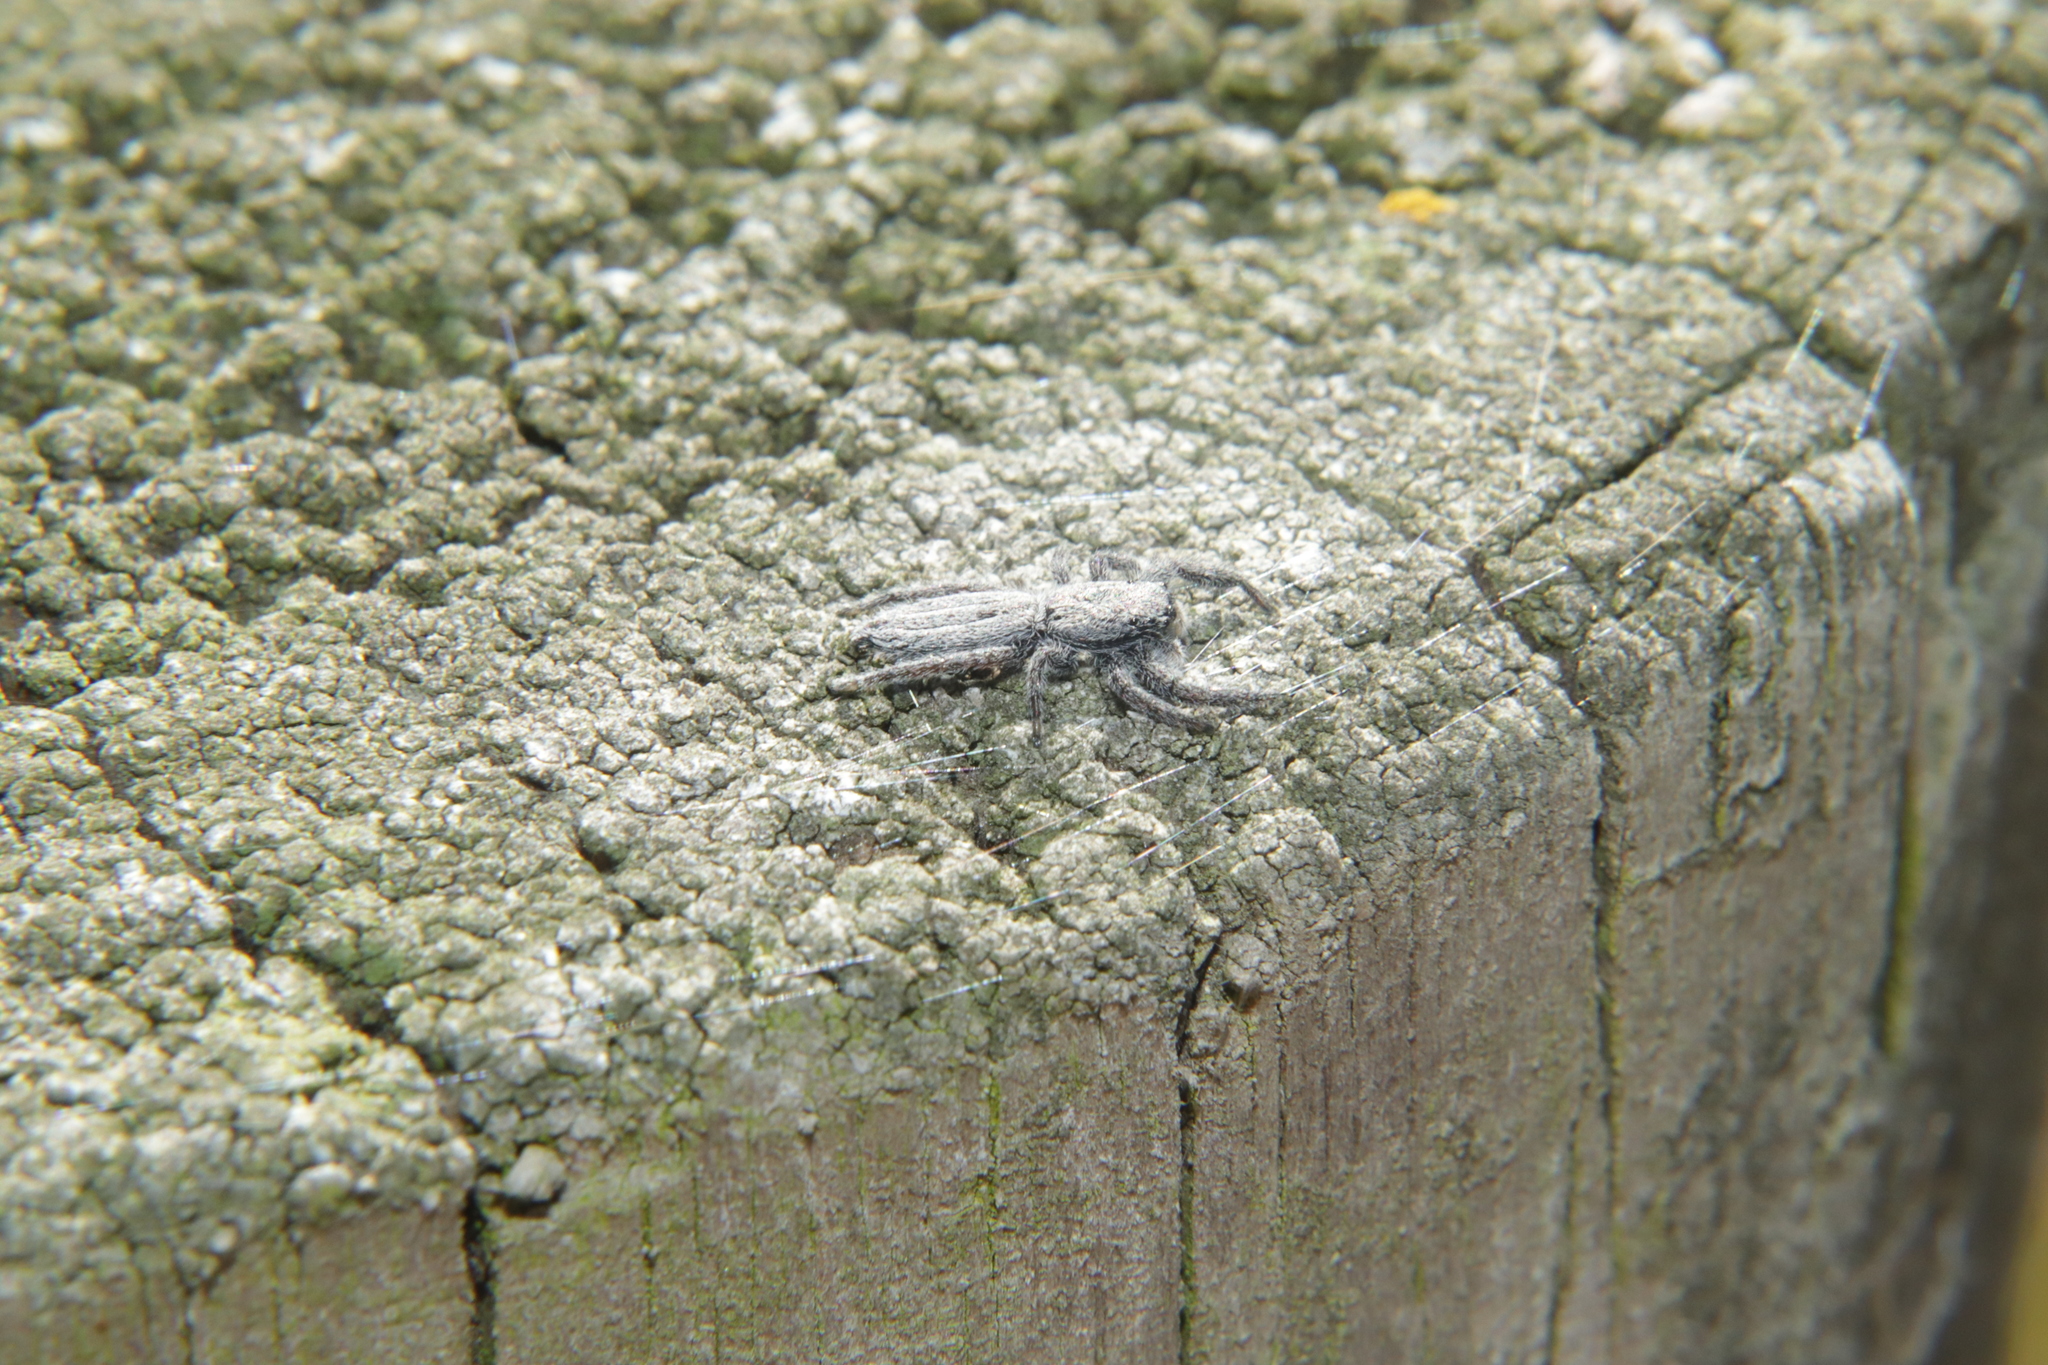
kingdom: Animalia
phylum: Arthropoda
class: Arachnida
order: Araneae
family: Salticidae
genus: Holoplatys
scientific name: Holoplatys apressus
